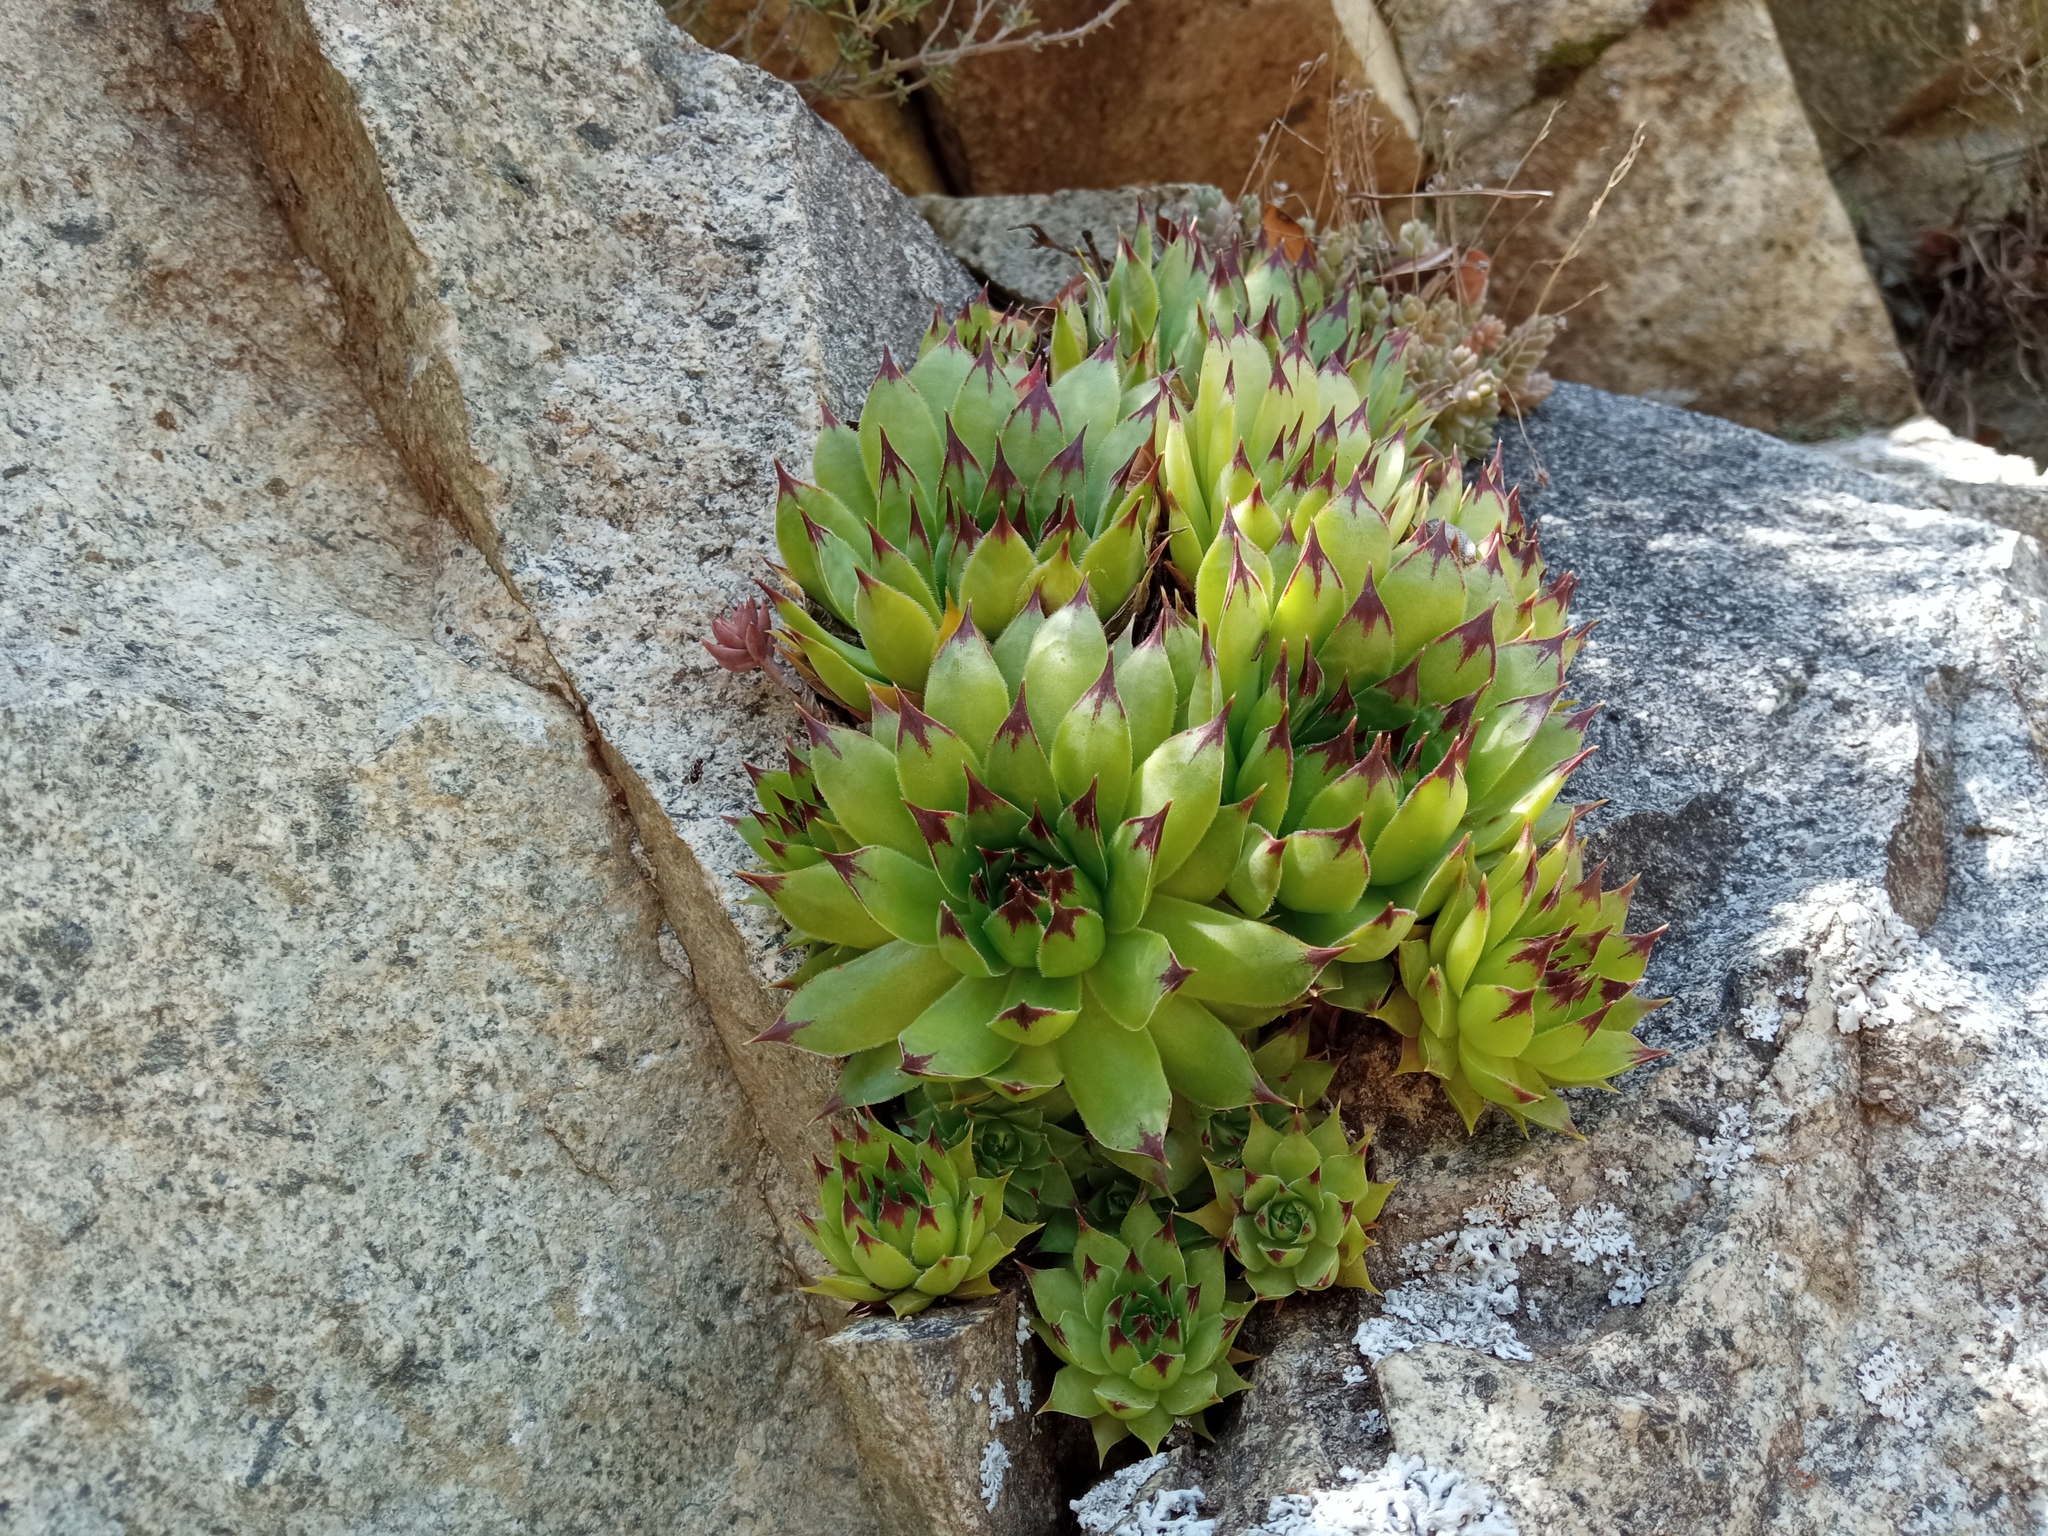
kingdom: Plantae
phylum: Tracheophyta
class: Magnoliopsida
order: Saxifragales
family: Crassulaceae
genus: Sempervivum
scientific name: Sempervivum tectorum
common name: House-leek
